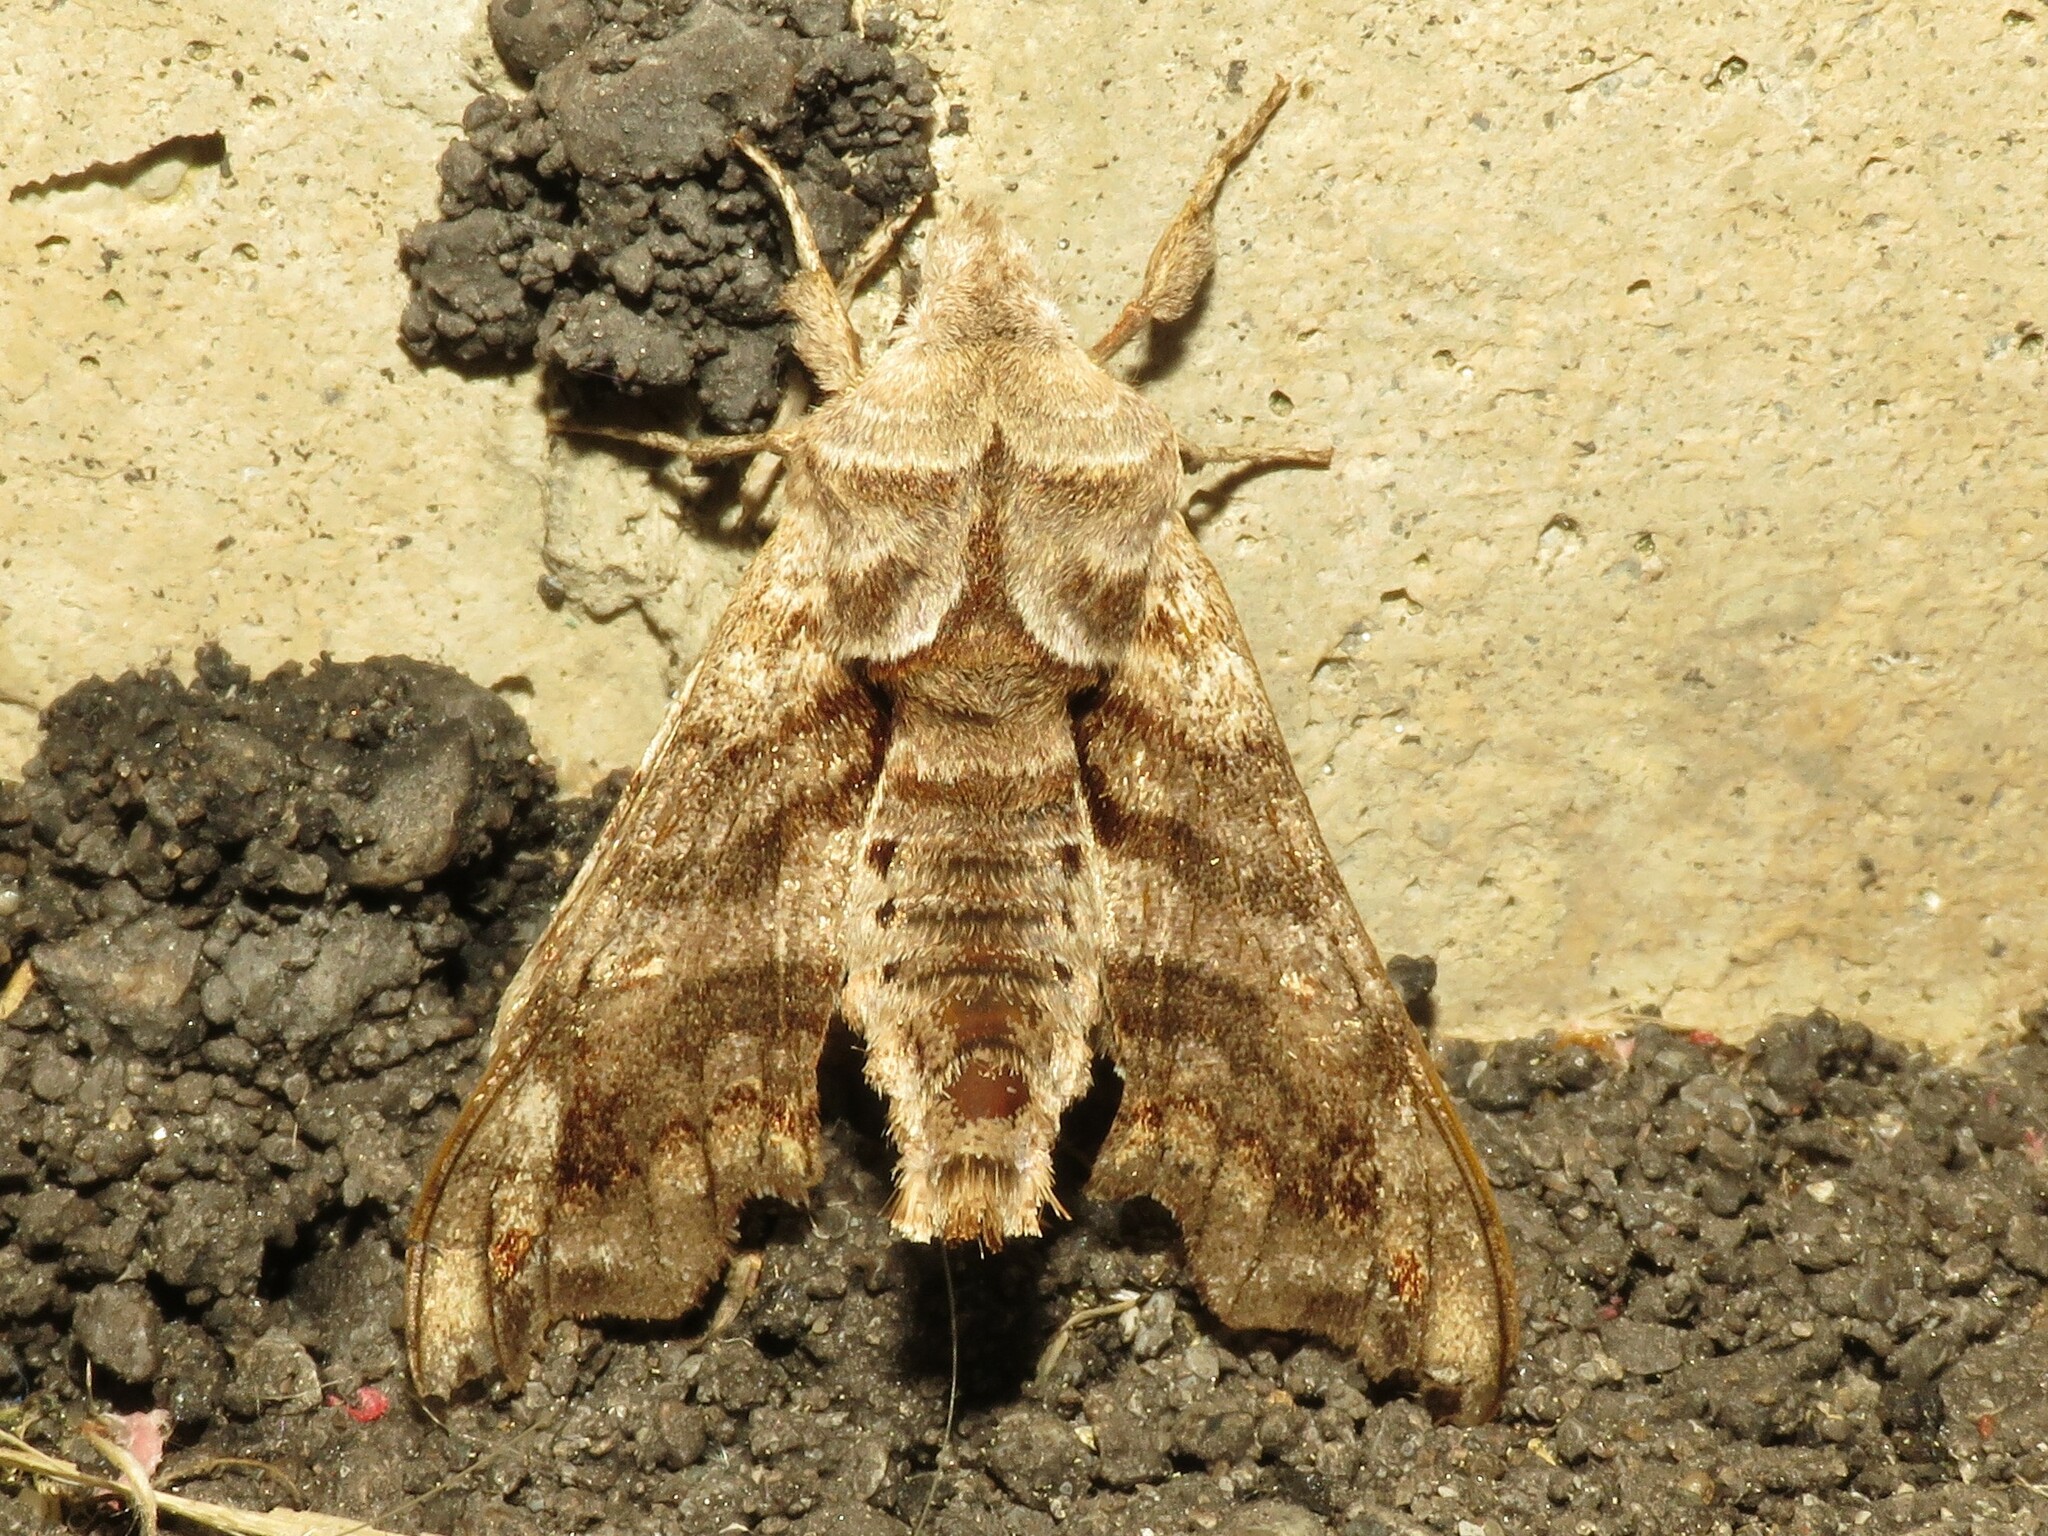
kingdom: Animalia
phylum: Arthropoda
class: Insecta
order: Lepidoptera
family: Sphingidae
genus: Deidamia
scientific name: Deidamia inscriptum
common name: Lettered sphinx
